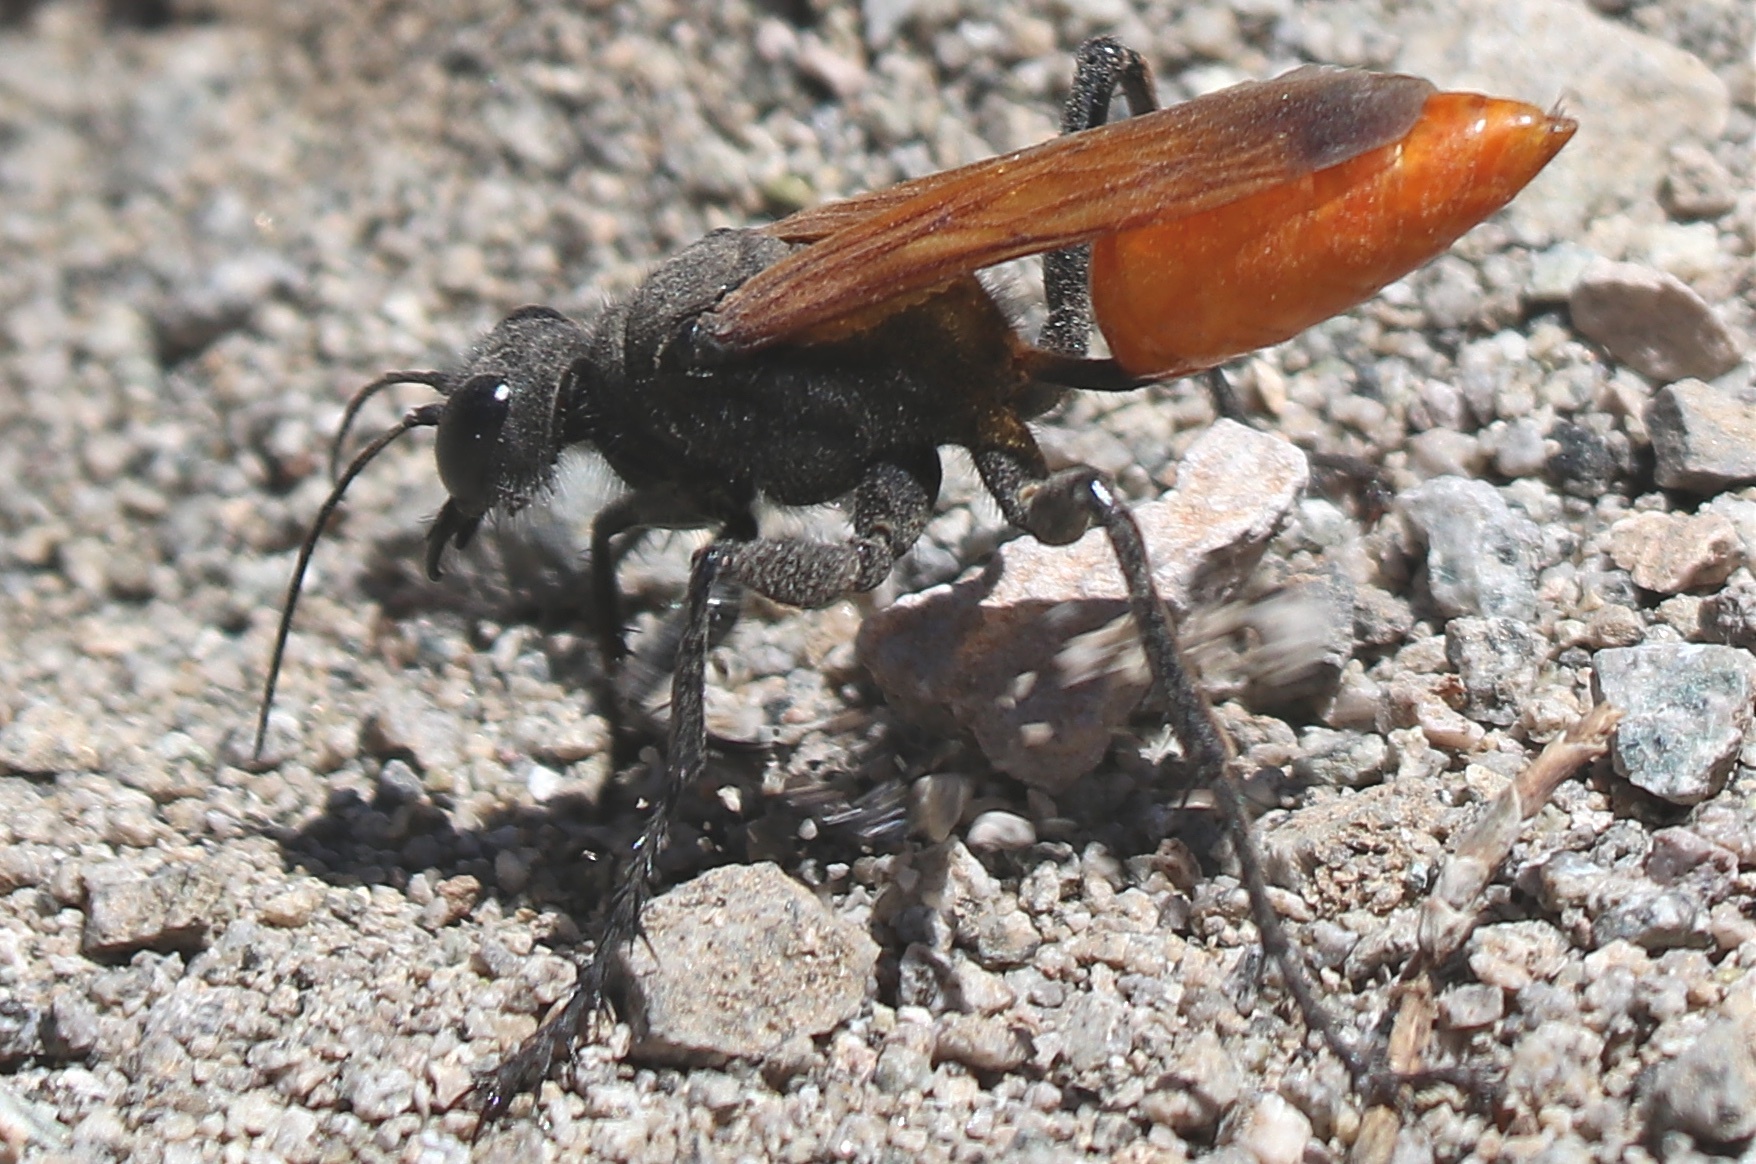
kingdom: Animalia
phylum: Arthropoda
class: Insecta
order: Hymenoptera
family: Sphecidae
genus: Palmodes
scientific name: Palmodes praestans
